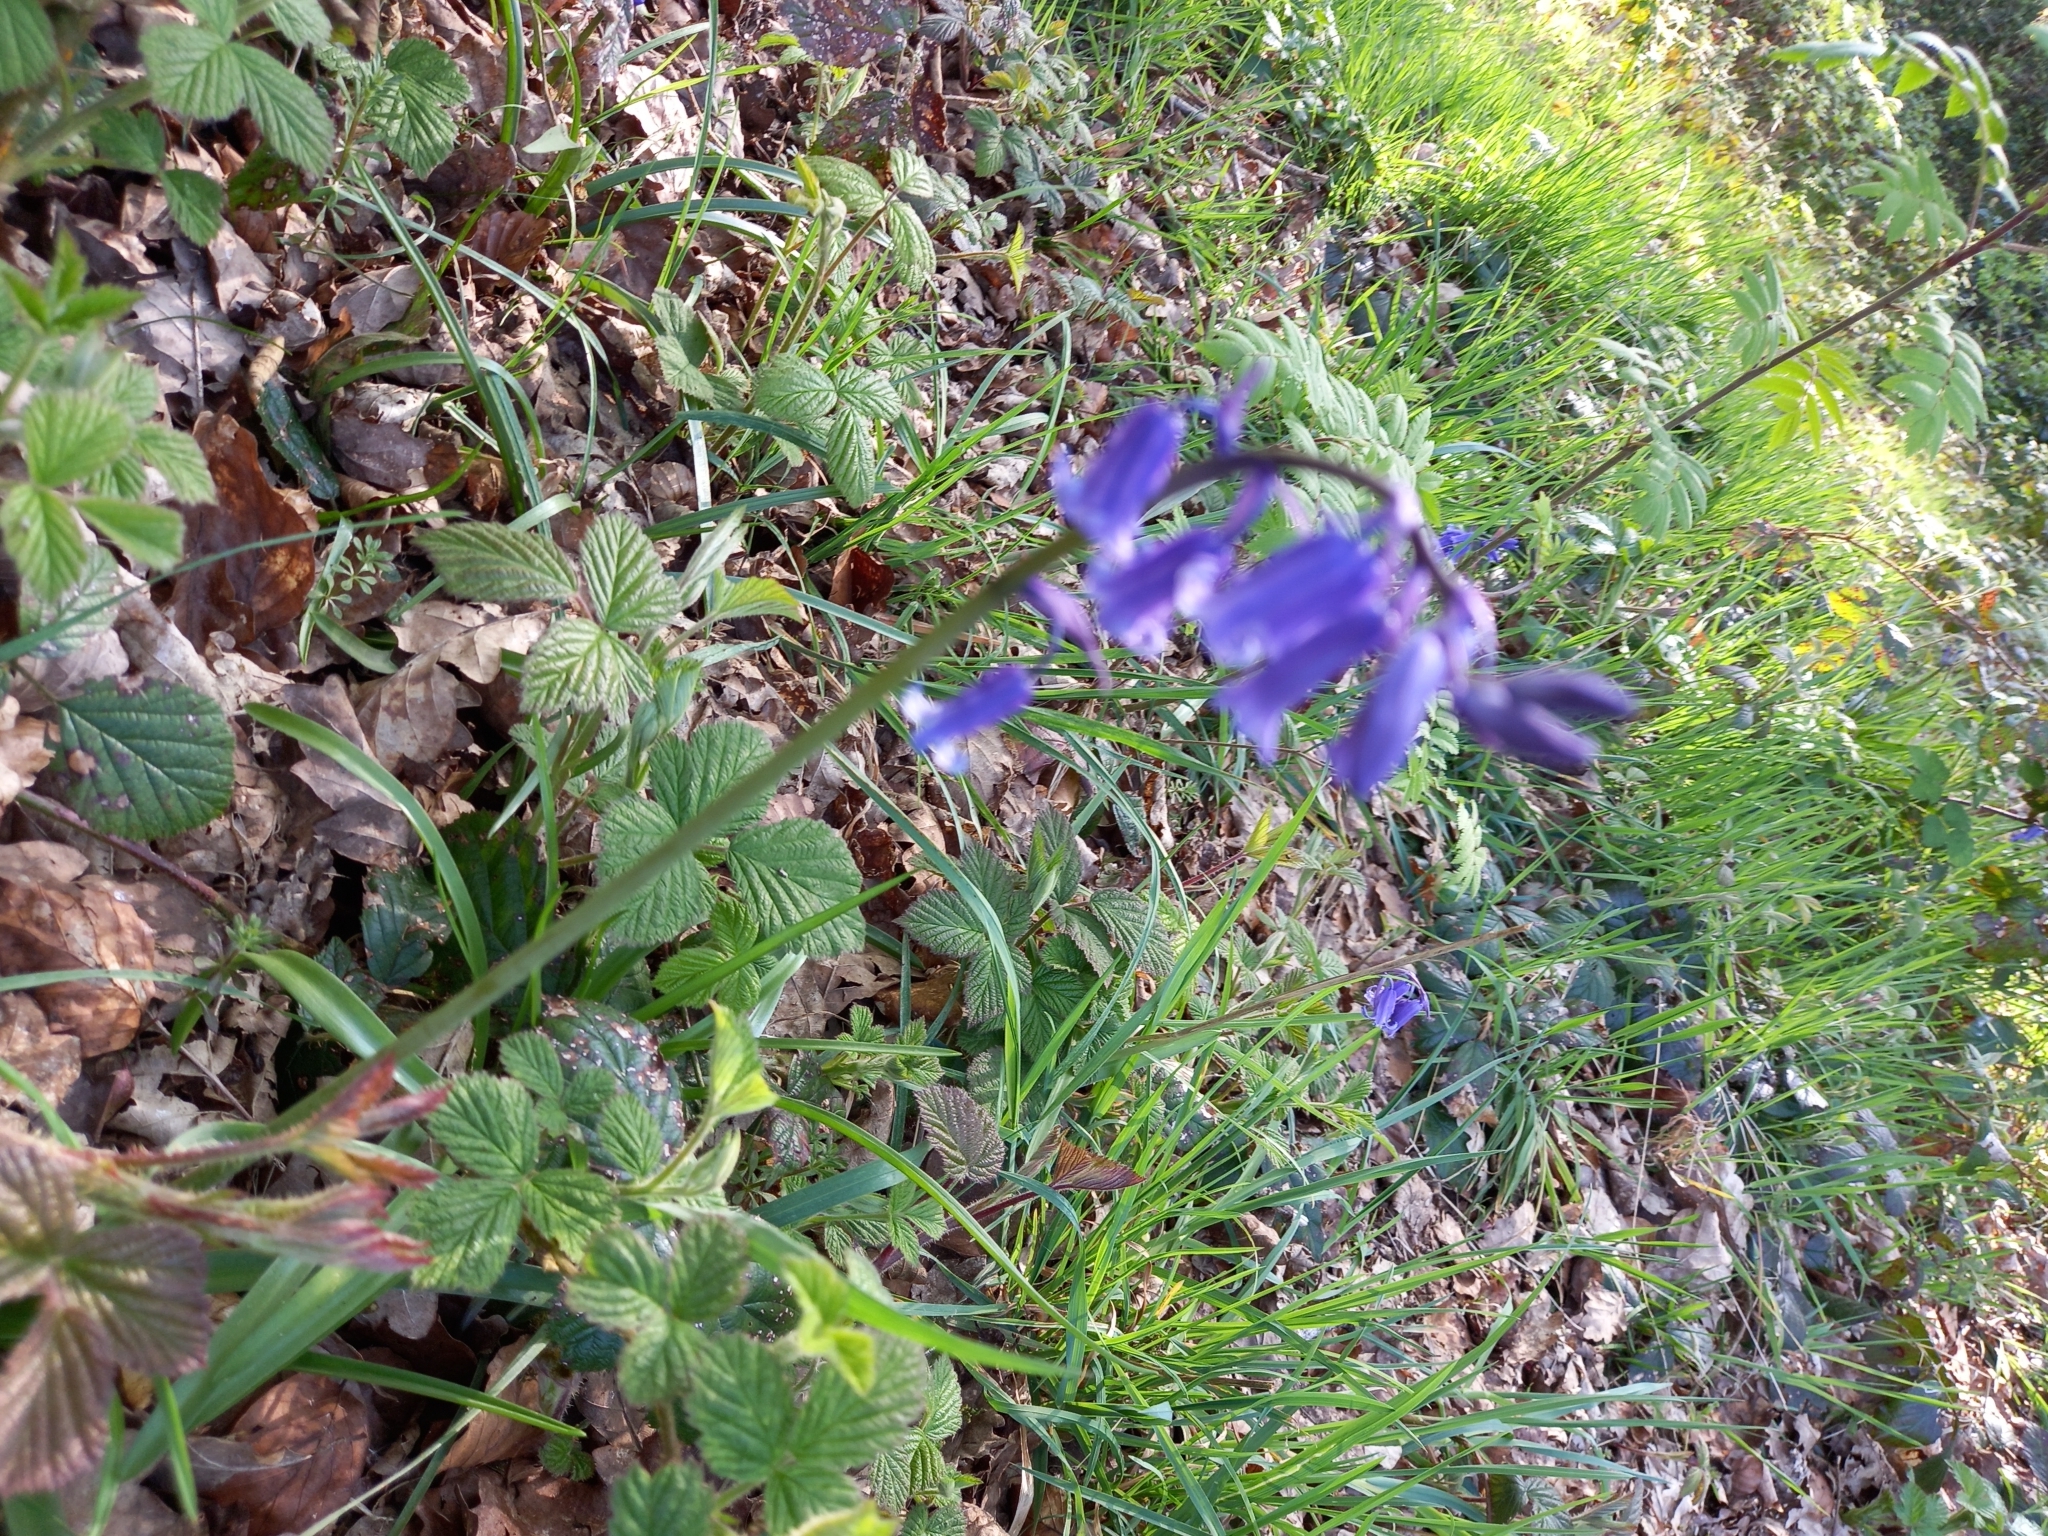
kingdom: Plantae
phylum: Tracheophyta
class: Liliopsida
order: Asparagales
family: Asparagaceae
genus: Hyacinthoides
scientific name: Hyacinthoides non-scripta
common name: Bluebell
